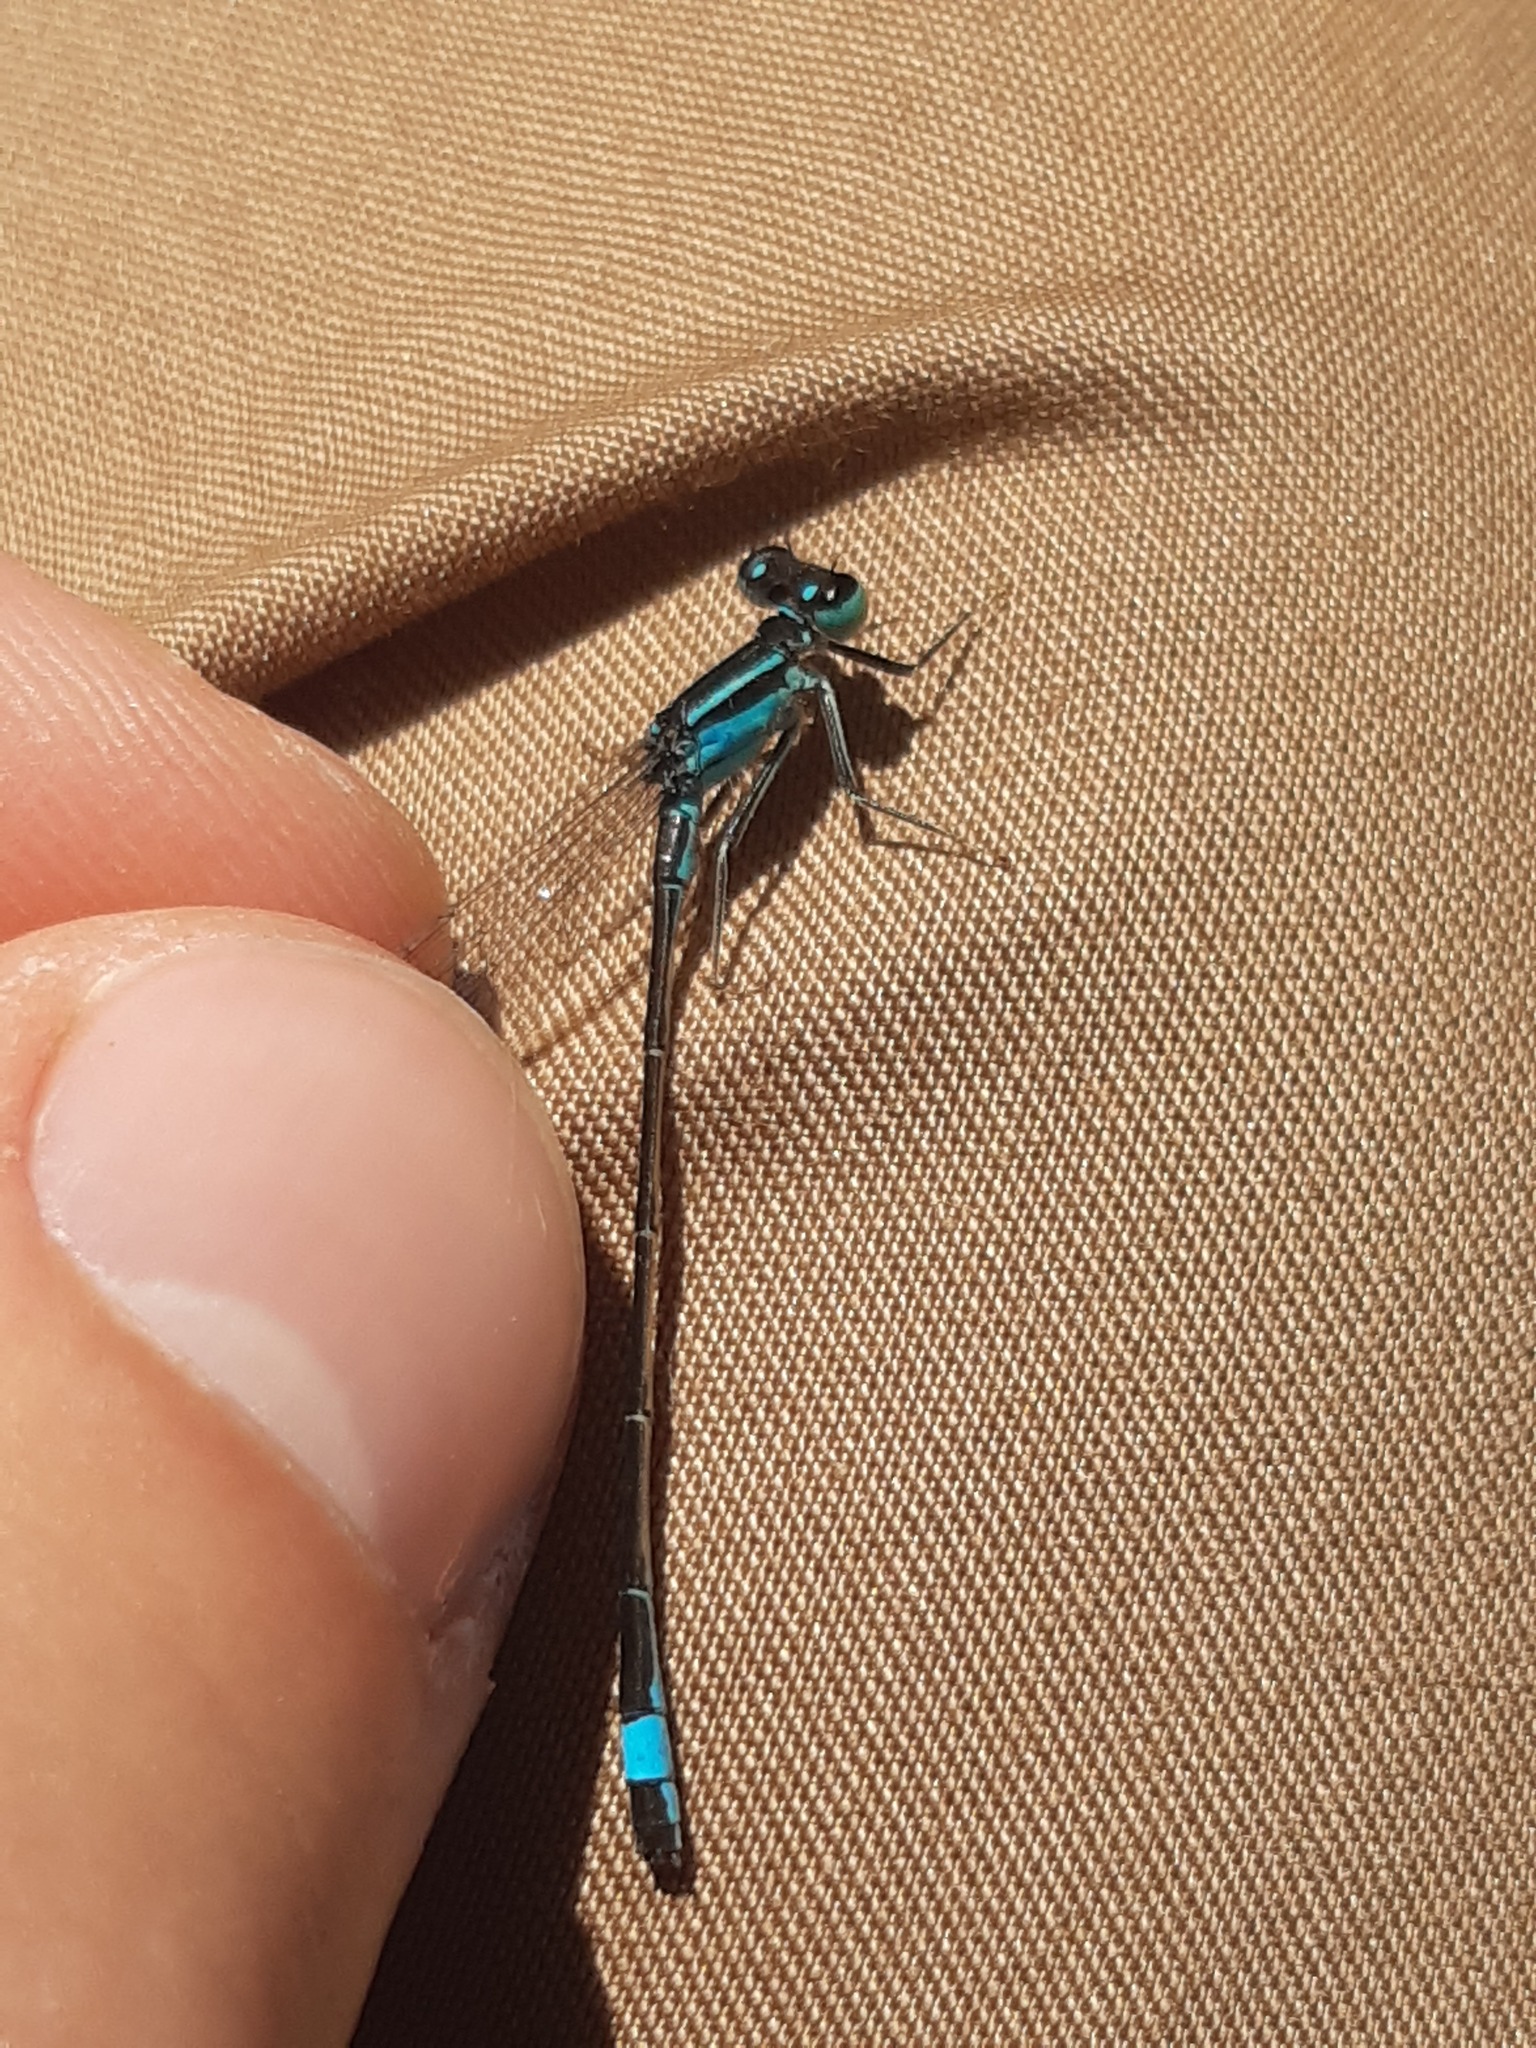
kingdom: Animalia
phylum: Arthropoda
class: Insecta
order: Odonata
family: Coenagrionidae
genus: Ischnura
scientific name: Ischnura elegans
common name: Blue-tailed damselfly
